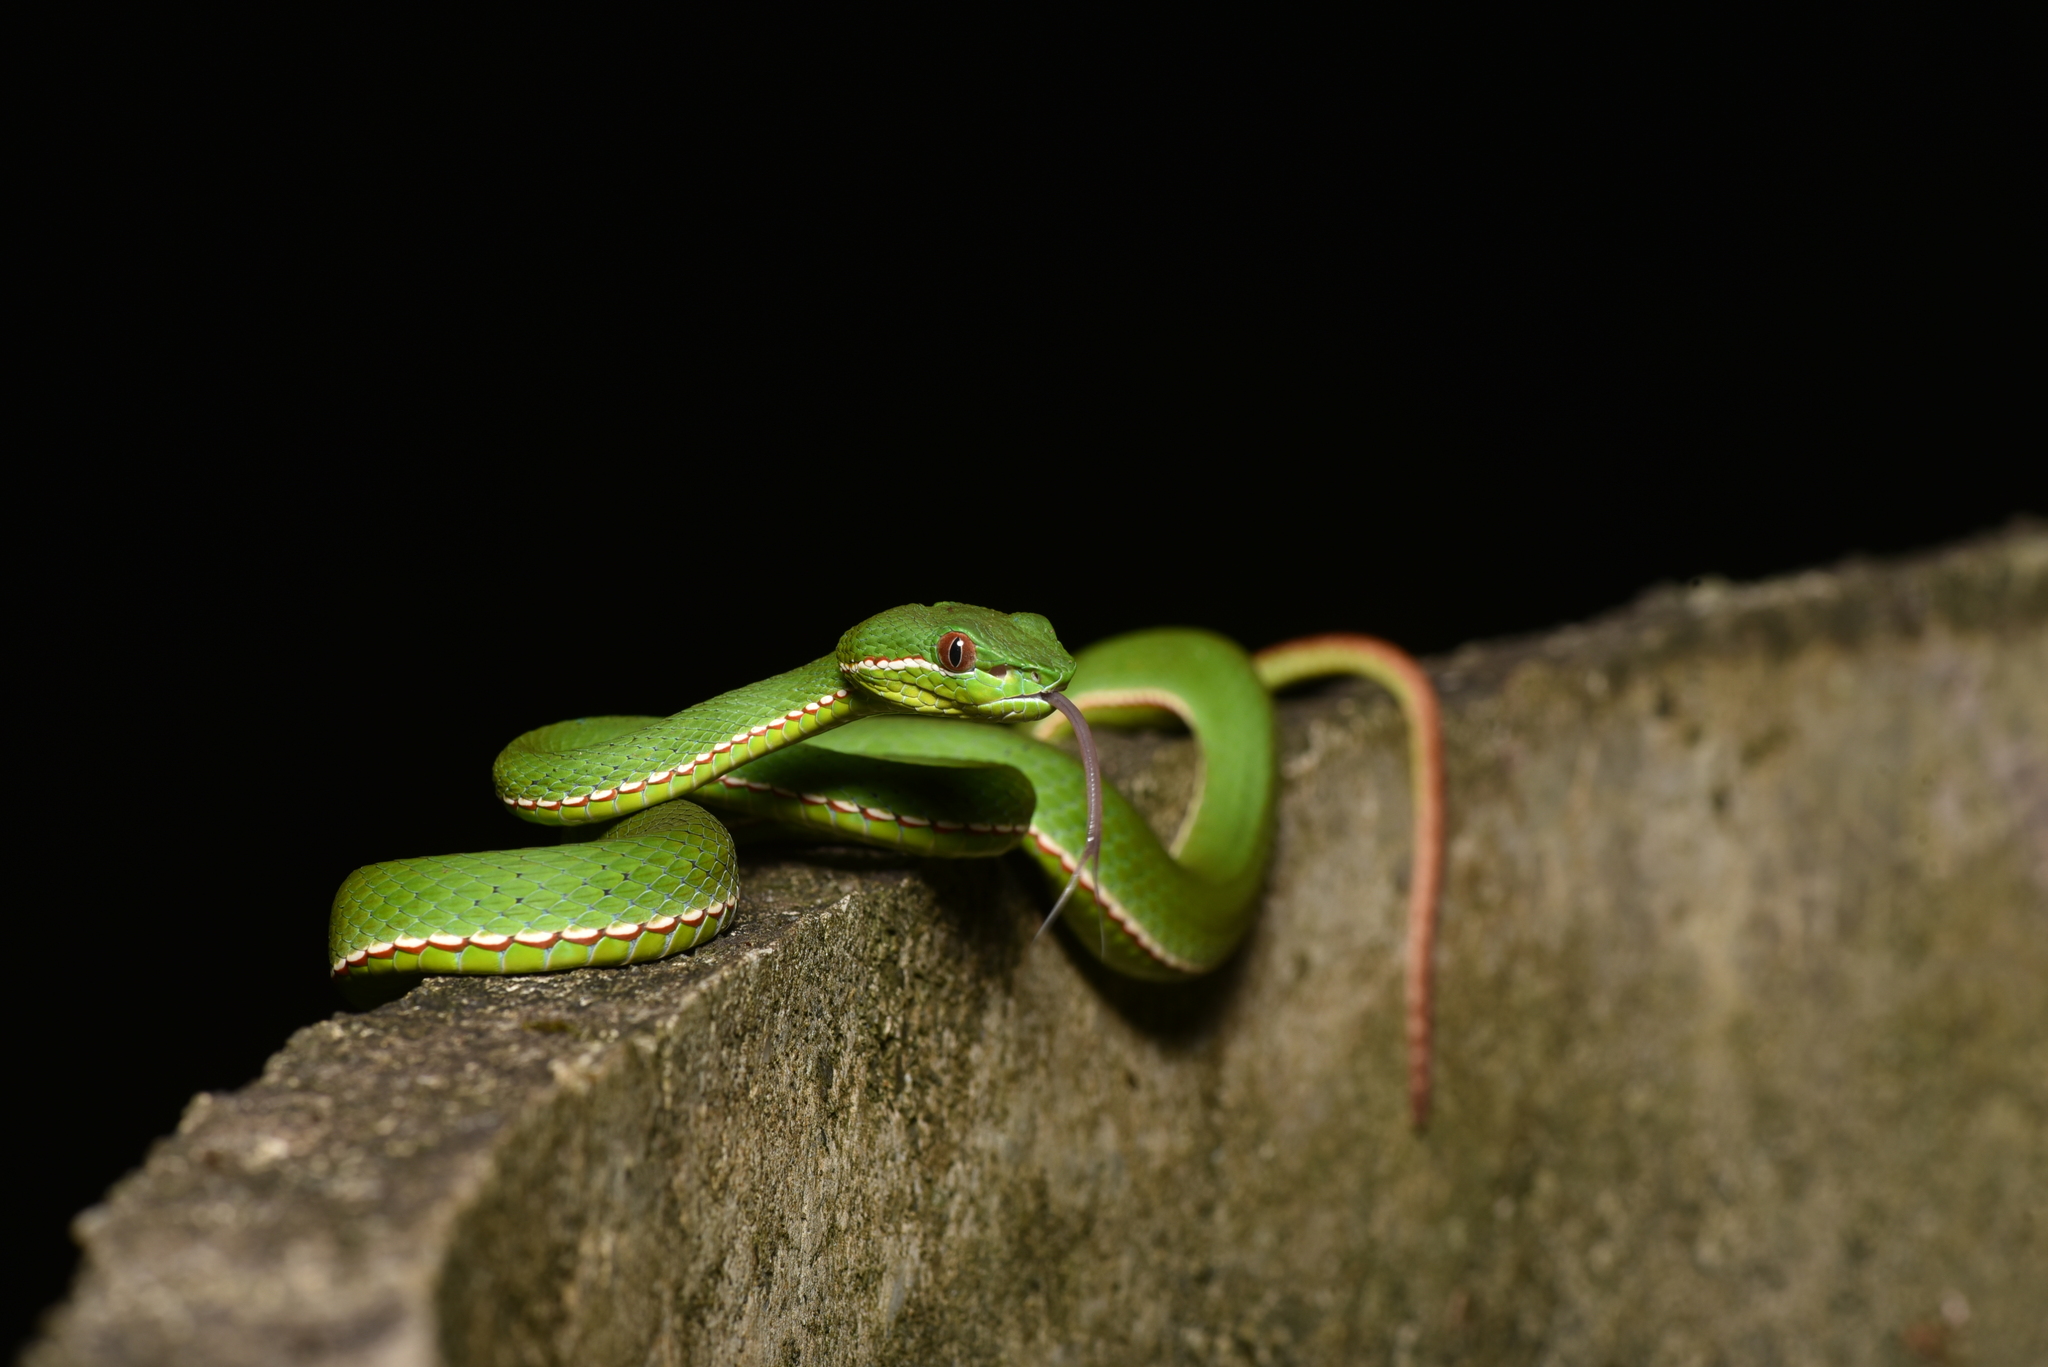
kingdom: Animalia
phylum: Chordata
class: Squamata
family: Viperidae
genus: Trimeresurus
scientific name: Trimeresurus stejnegeri
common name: Chen’s bamboo pit viper
